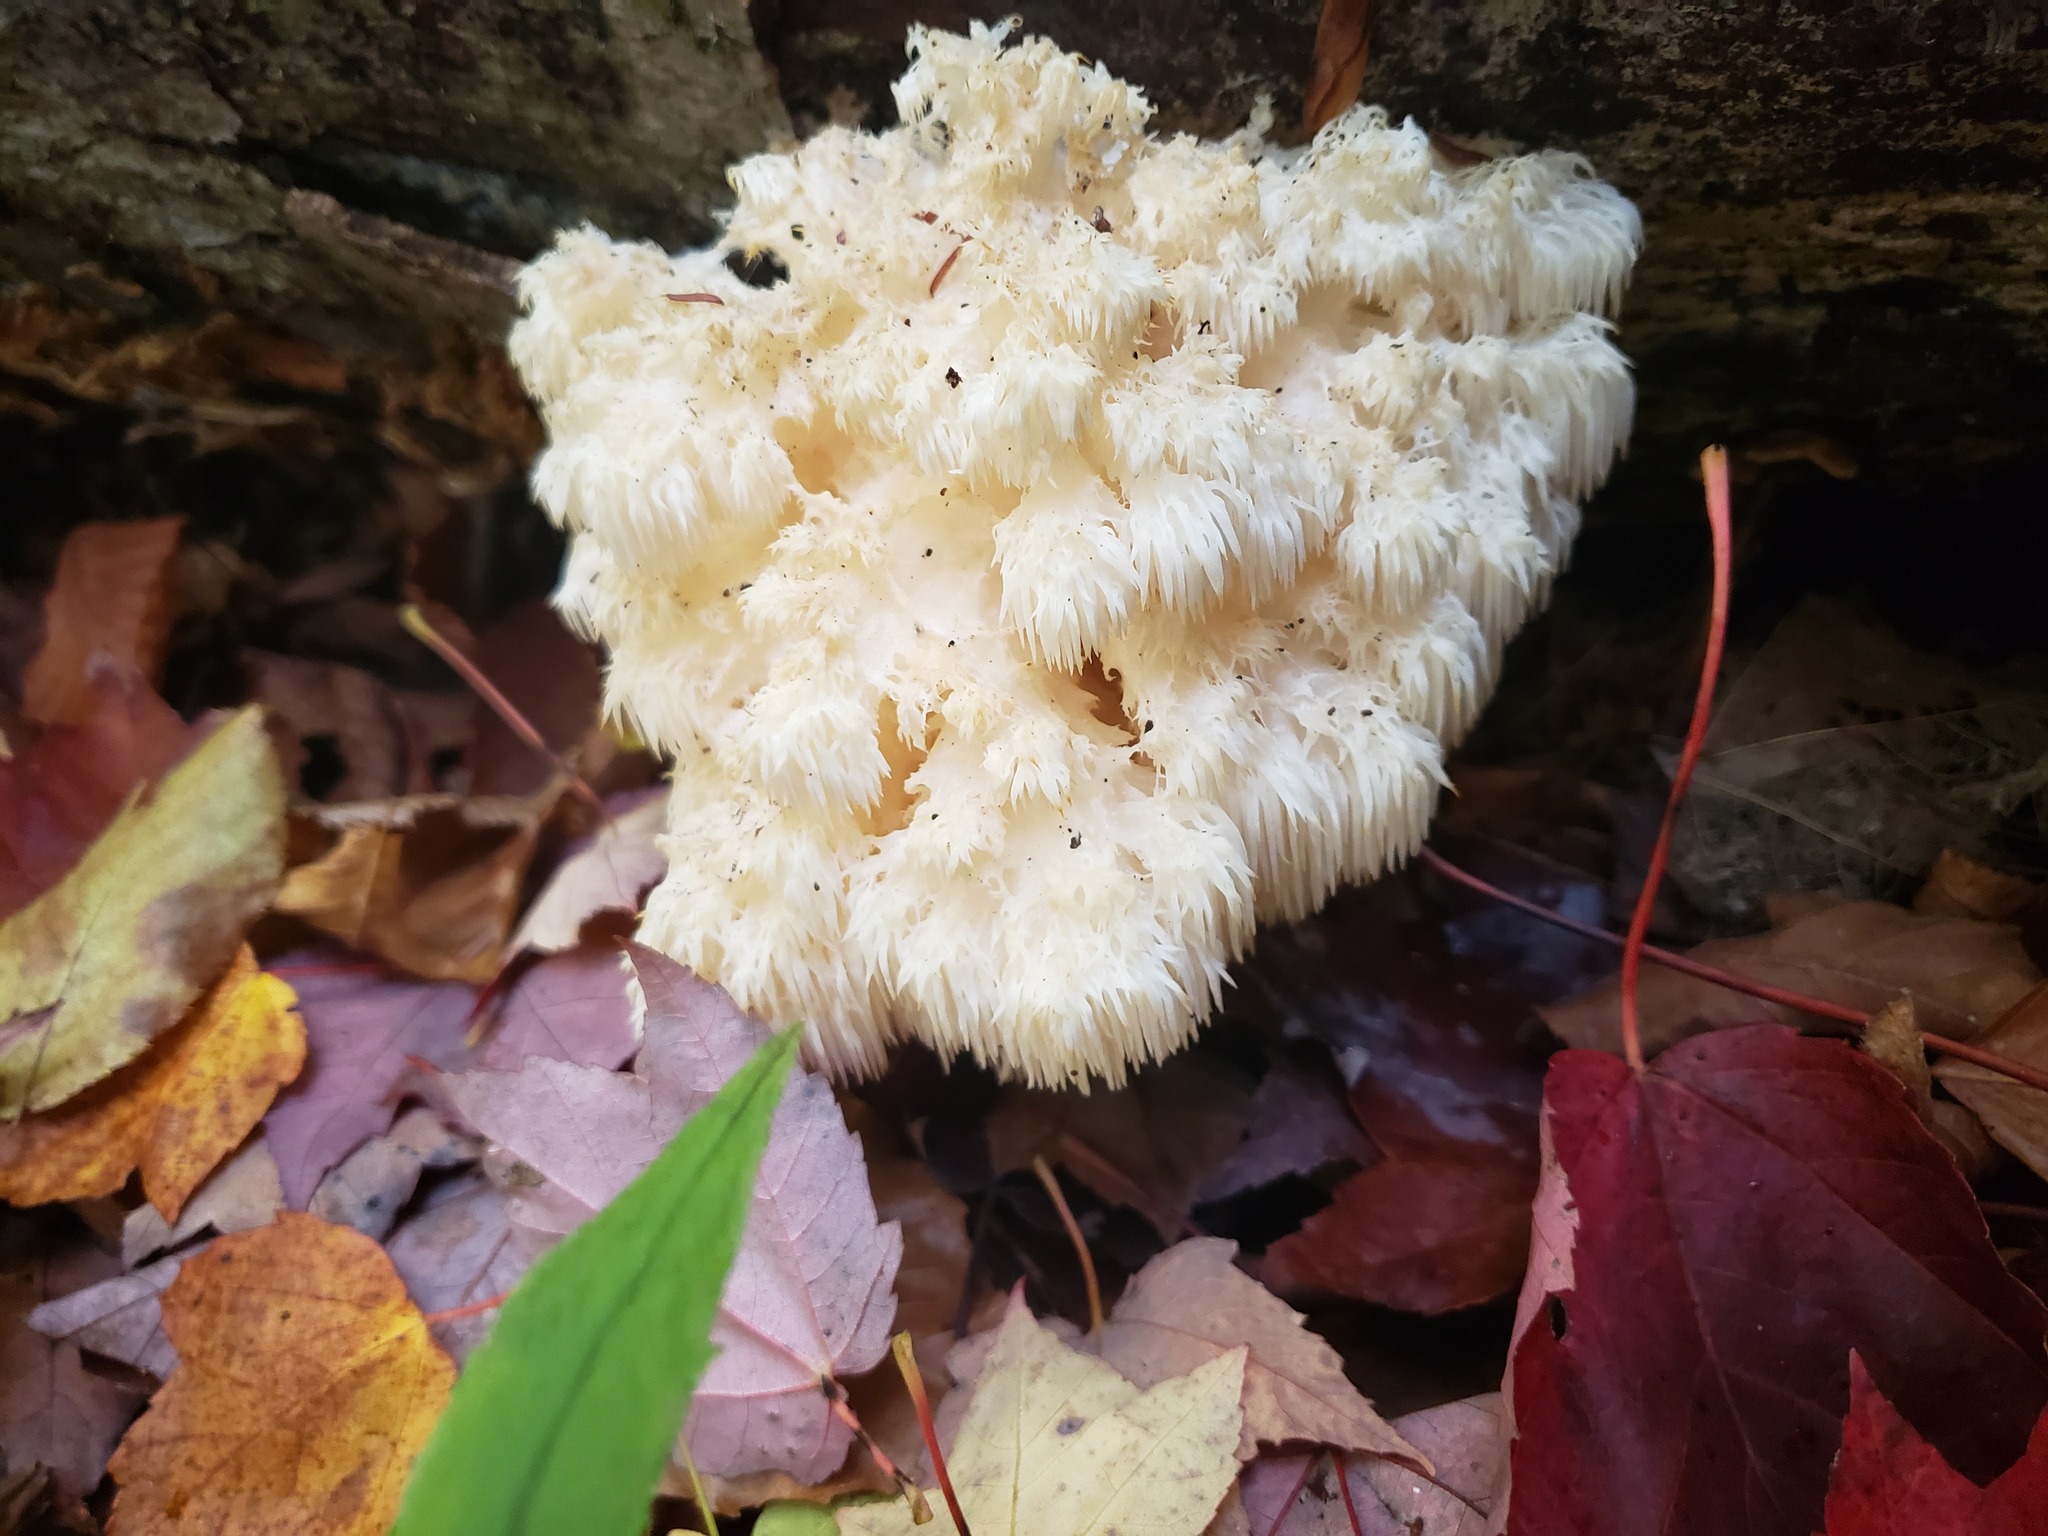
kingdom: Fungi
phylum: Basidiomycota
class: Agaricomycetes
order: Russulales
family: Hericiaceae
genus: Hericium
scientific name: Hericium americanum
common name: Bear's head tooth
